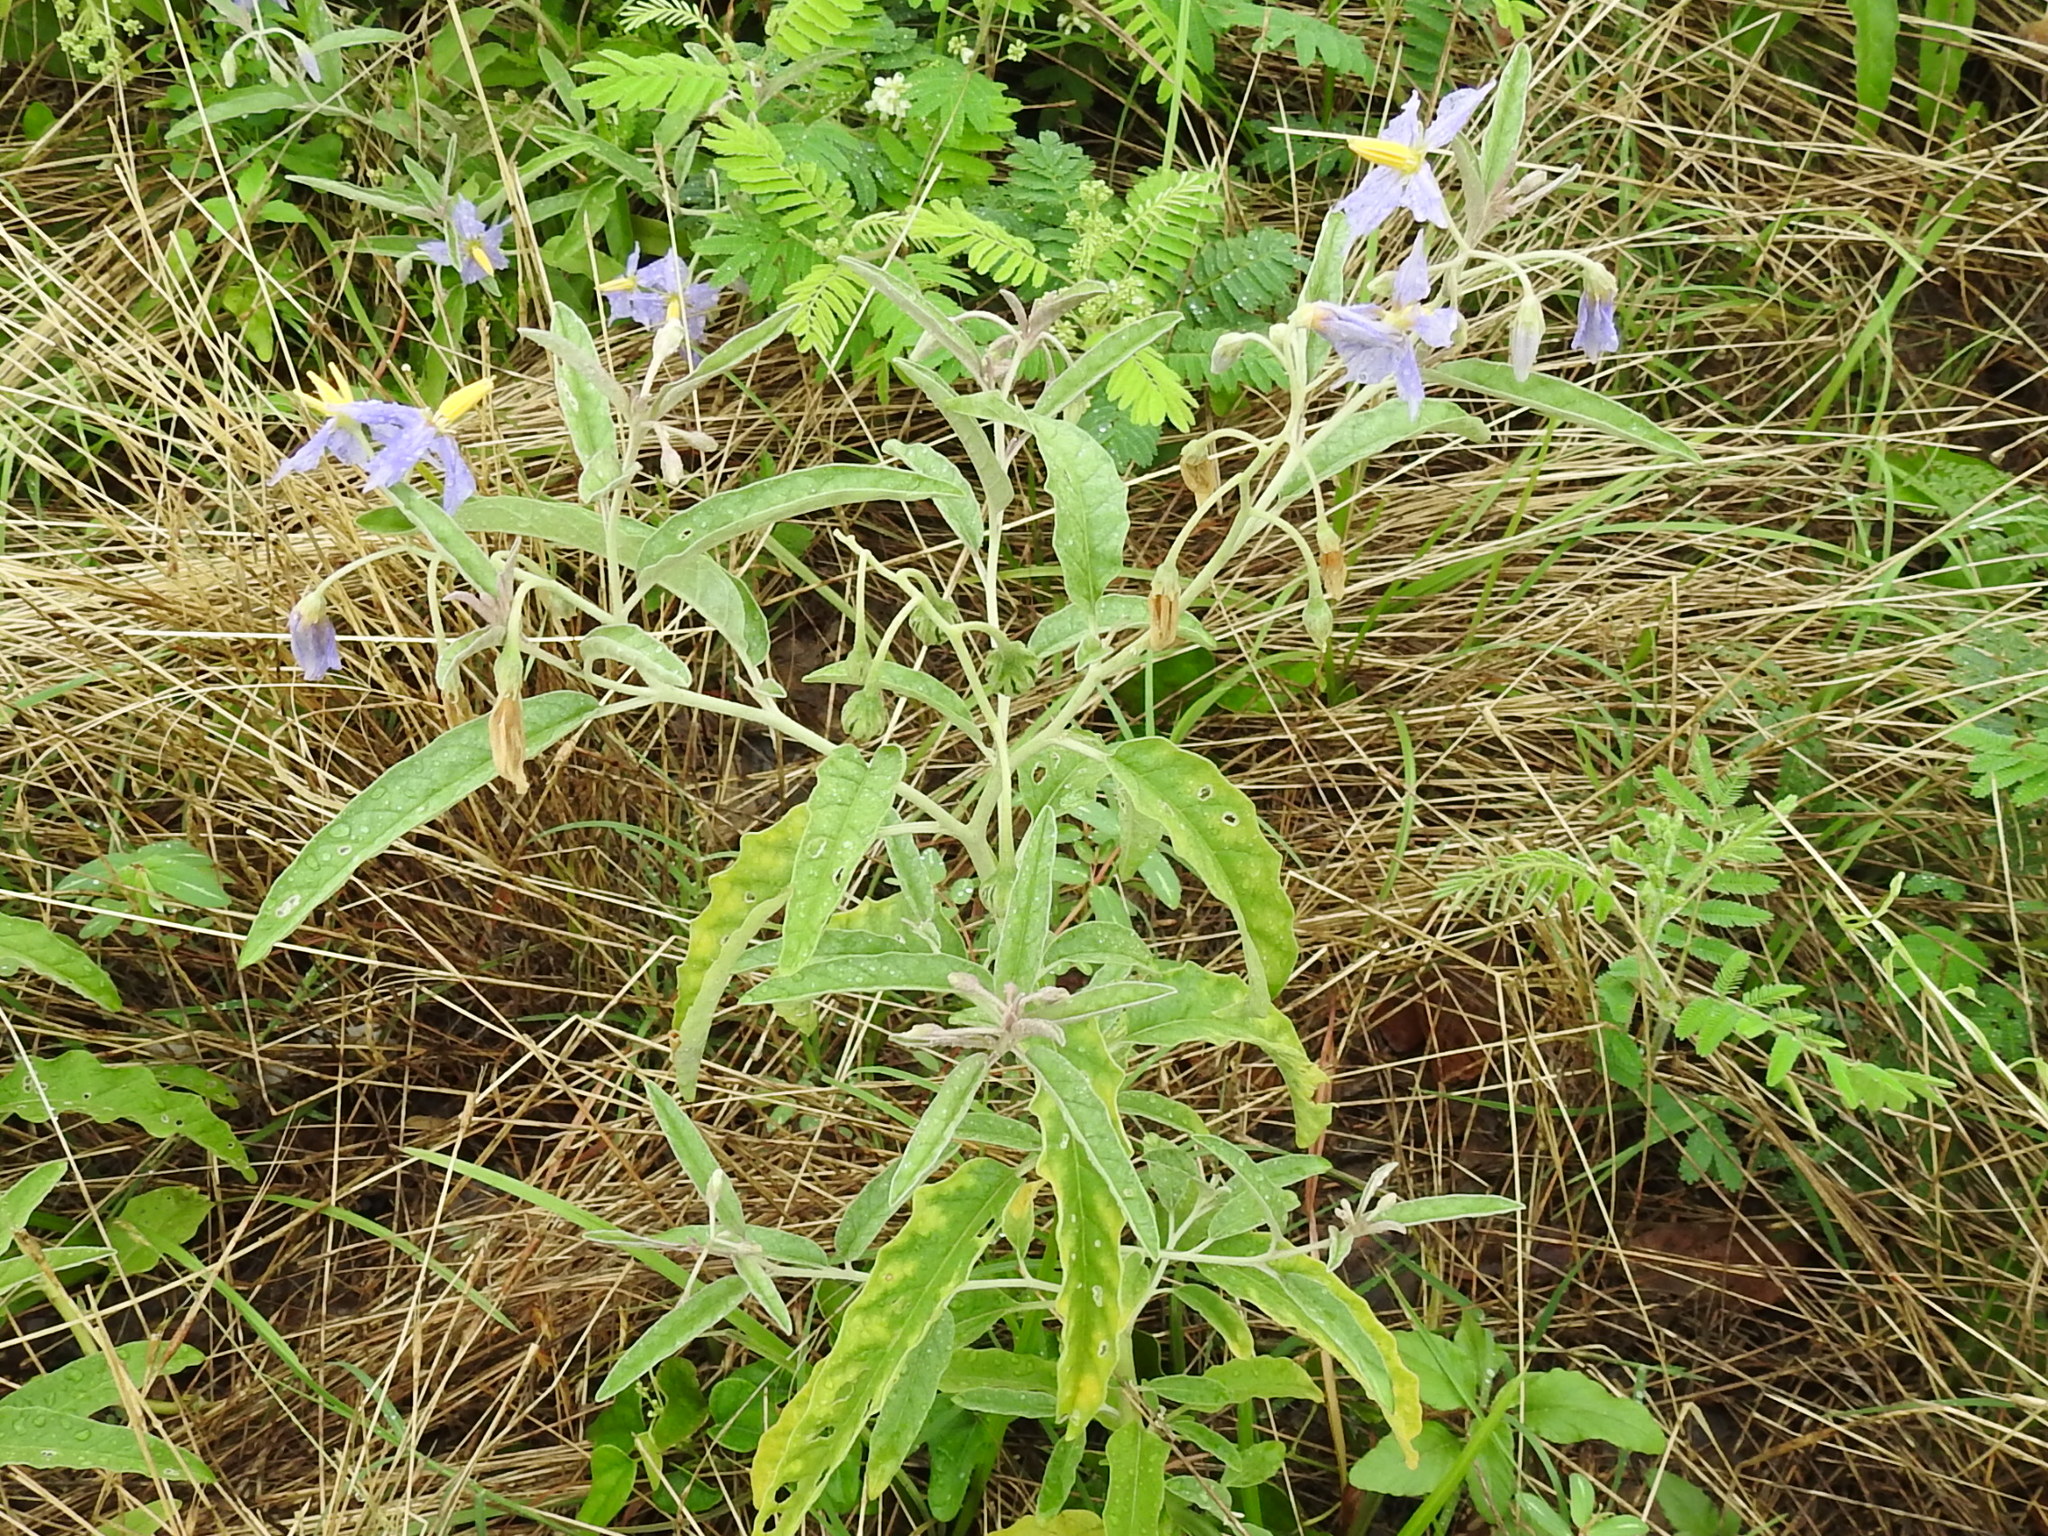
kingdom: Plantae
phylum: Tracheophyta
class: Magnoliopsida
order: Solanales
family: Solanaceae
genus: Solanum
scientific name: Solanum elaeagnifolium
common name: Silverleaf nightshade
